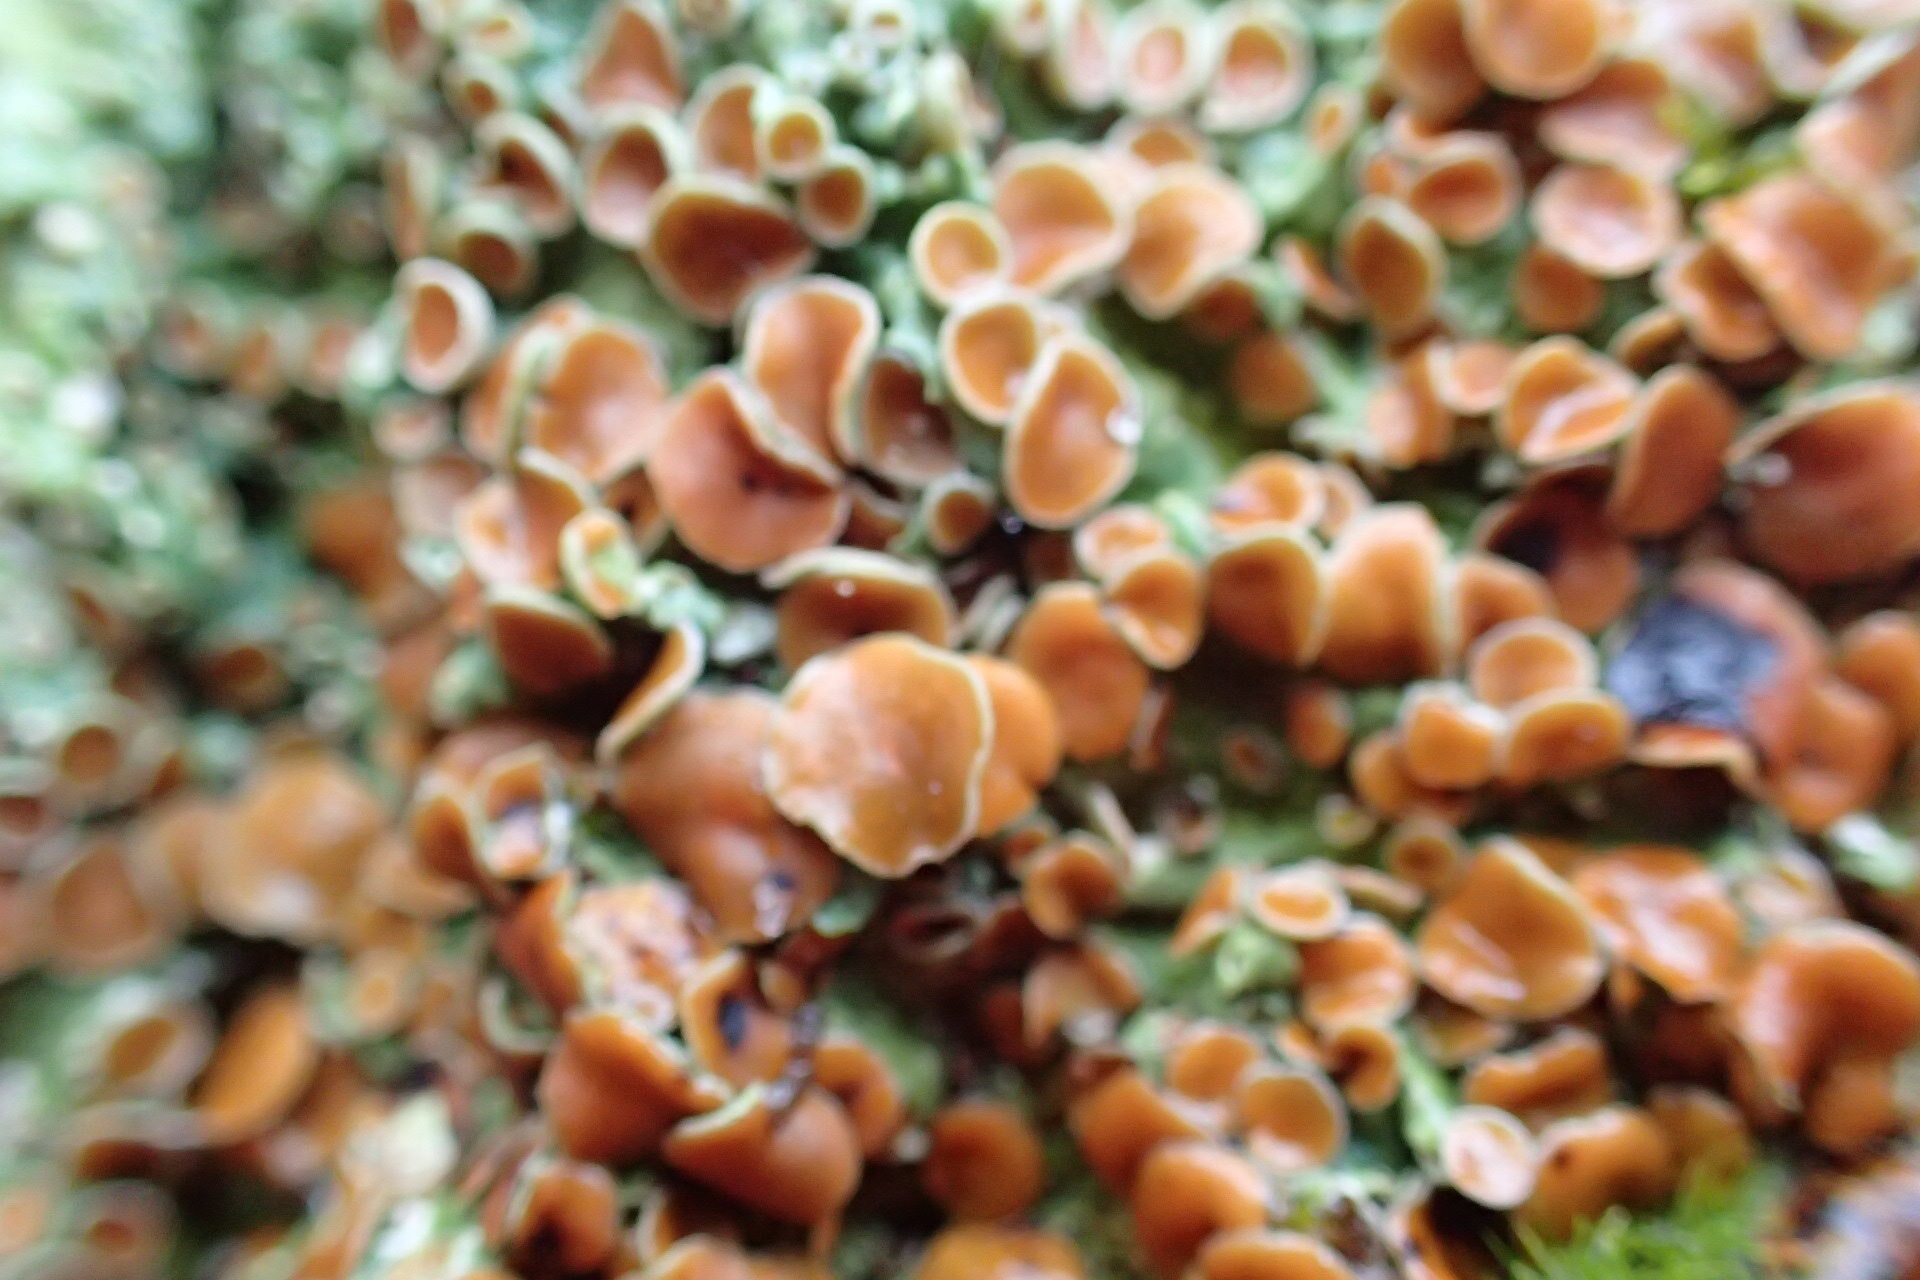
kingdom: Fungi
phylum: Ascomycota
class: Lecanoromycetes
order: Peltigerales
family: Lobariaceae
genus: Ricasolia
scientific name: Ricasolia quercizans
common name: Smooth lungwort
